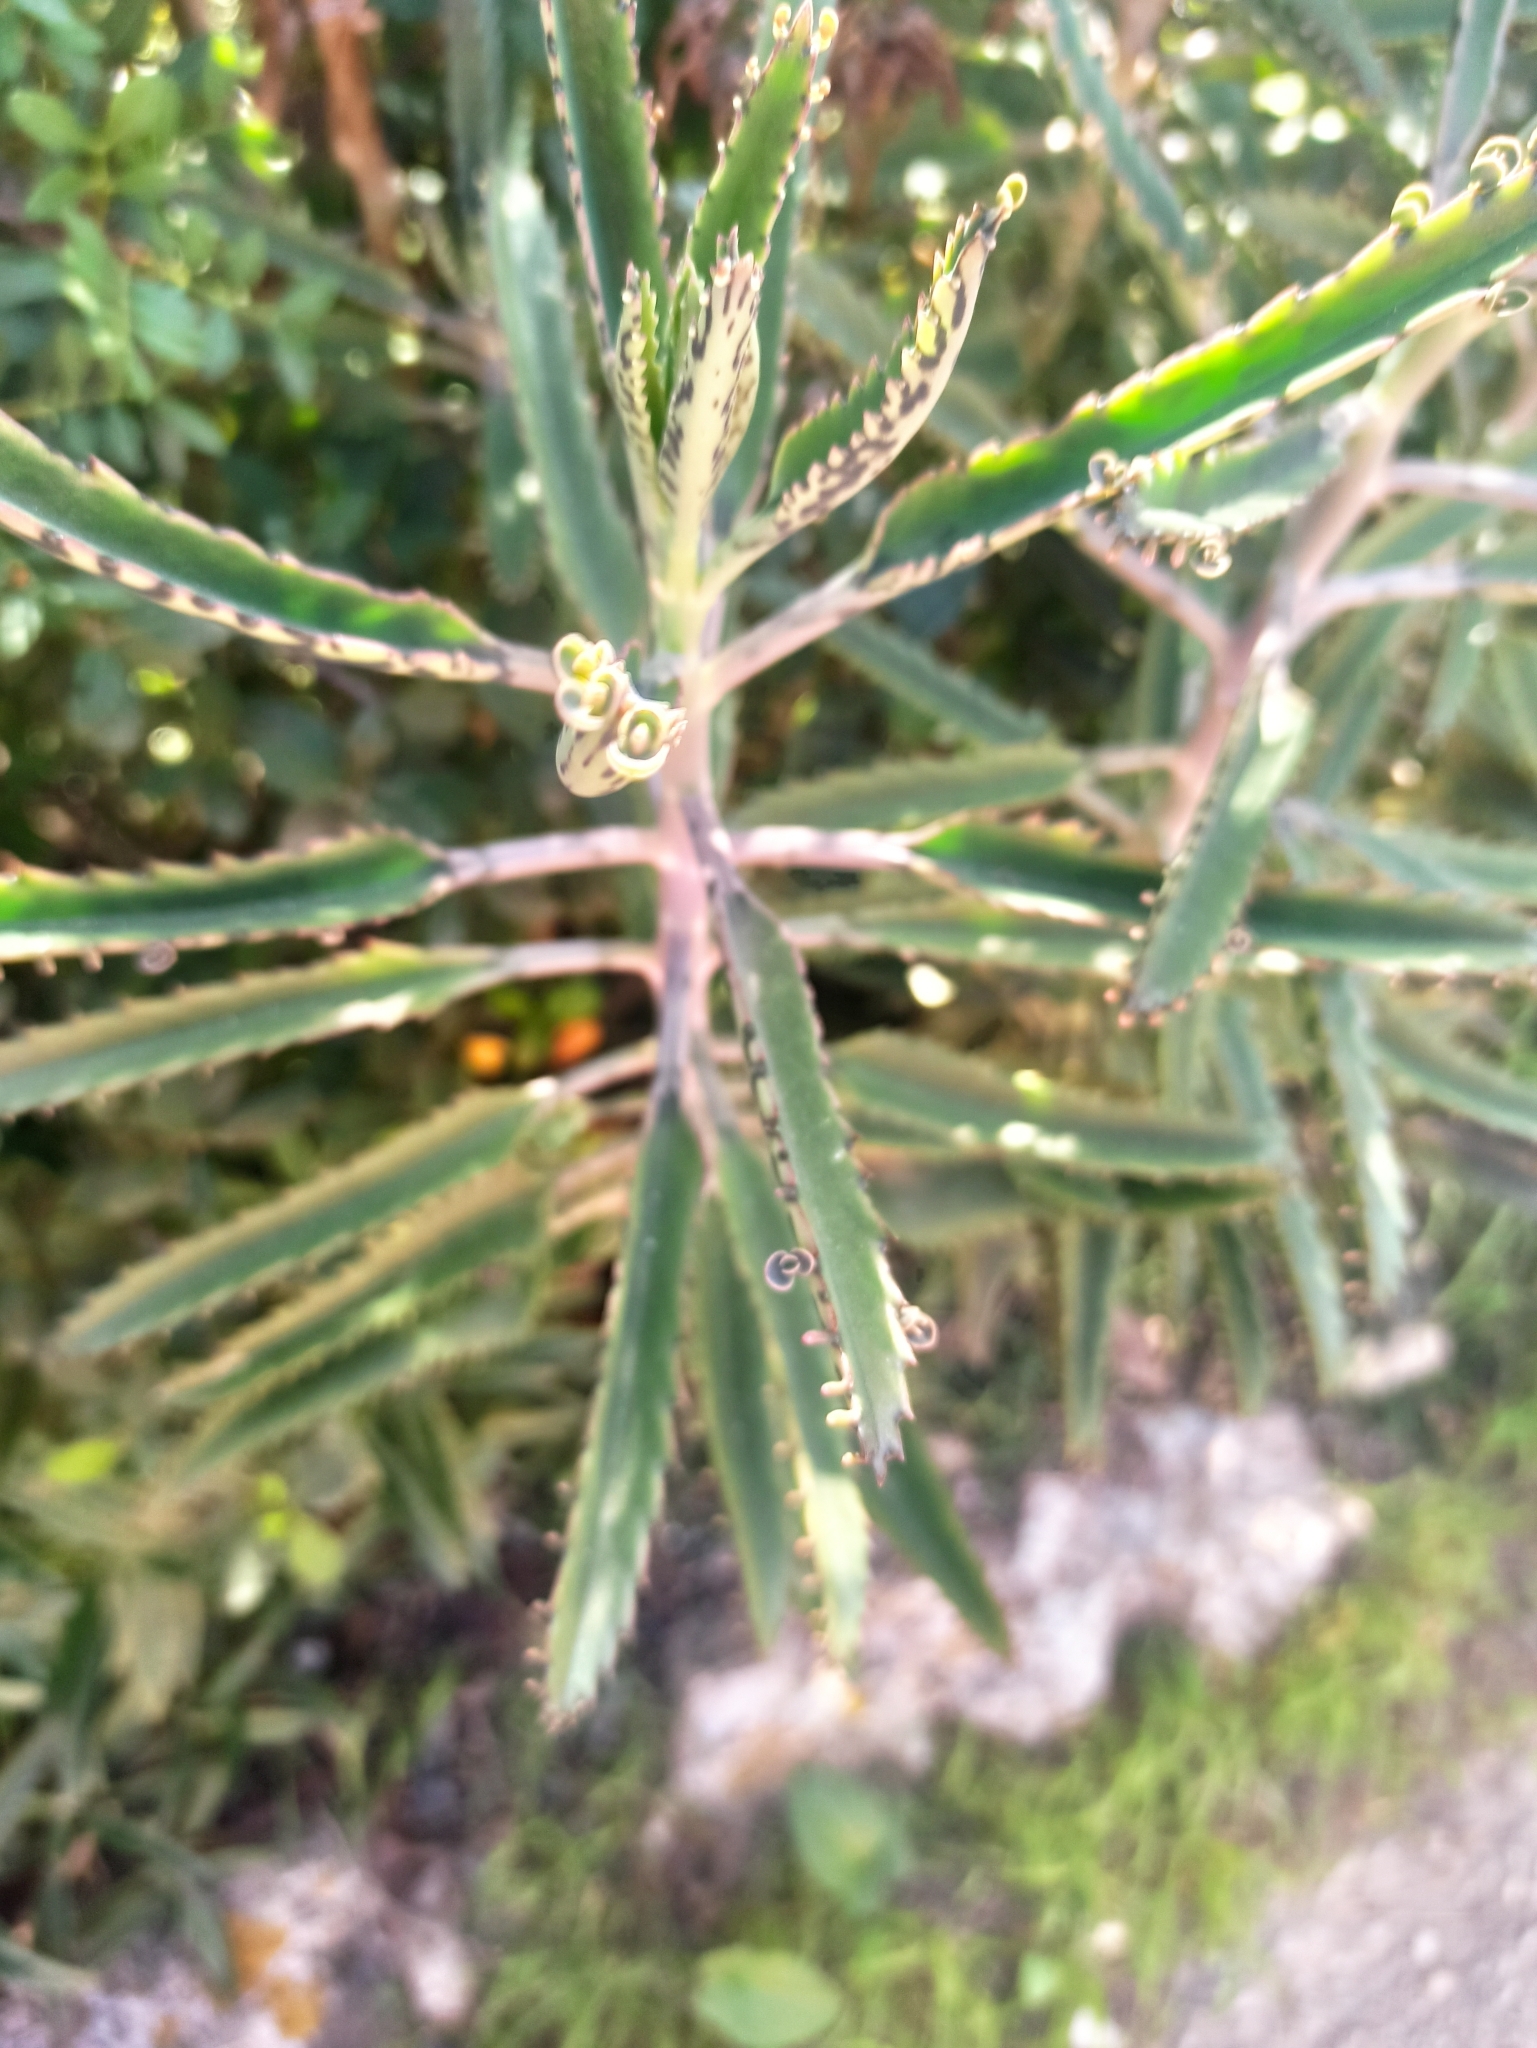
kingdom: Plantae
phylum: Tracheophyta
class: Magnoliopsida
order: Saxifragales
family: Crassulaceae
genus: Kalanchoe
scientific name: Kalanchoe houghtonii
